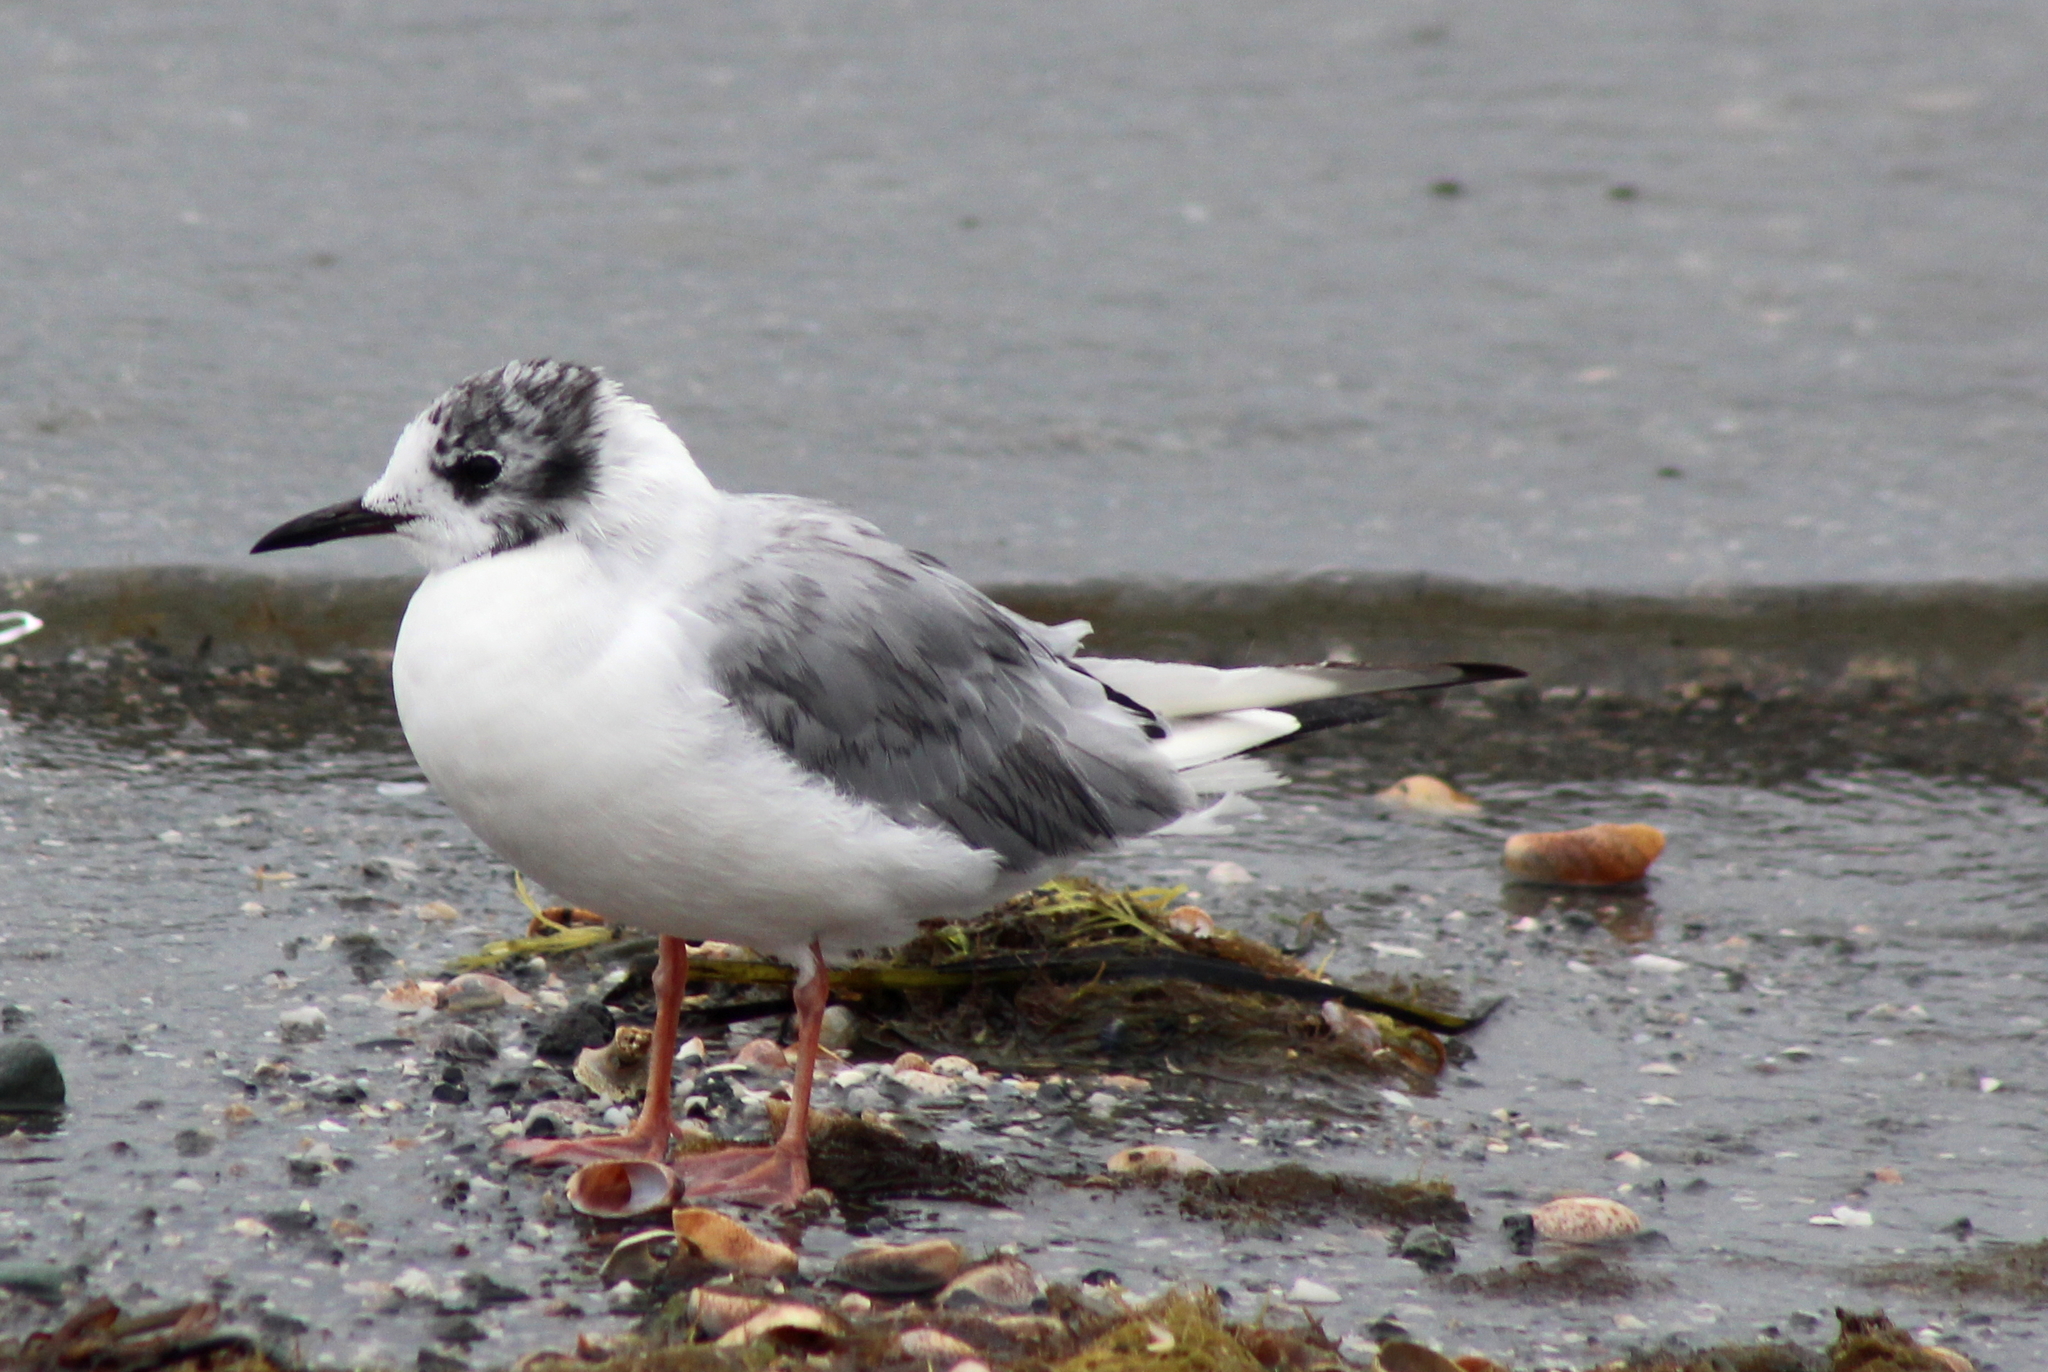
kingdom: Animalia
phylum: Chordata
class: Aves
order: Charadriiformes
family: Laridae
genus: Chroicocephalus
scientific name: Chroicocephalus philadelphia
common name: Bonaparte's gull
